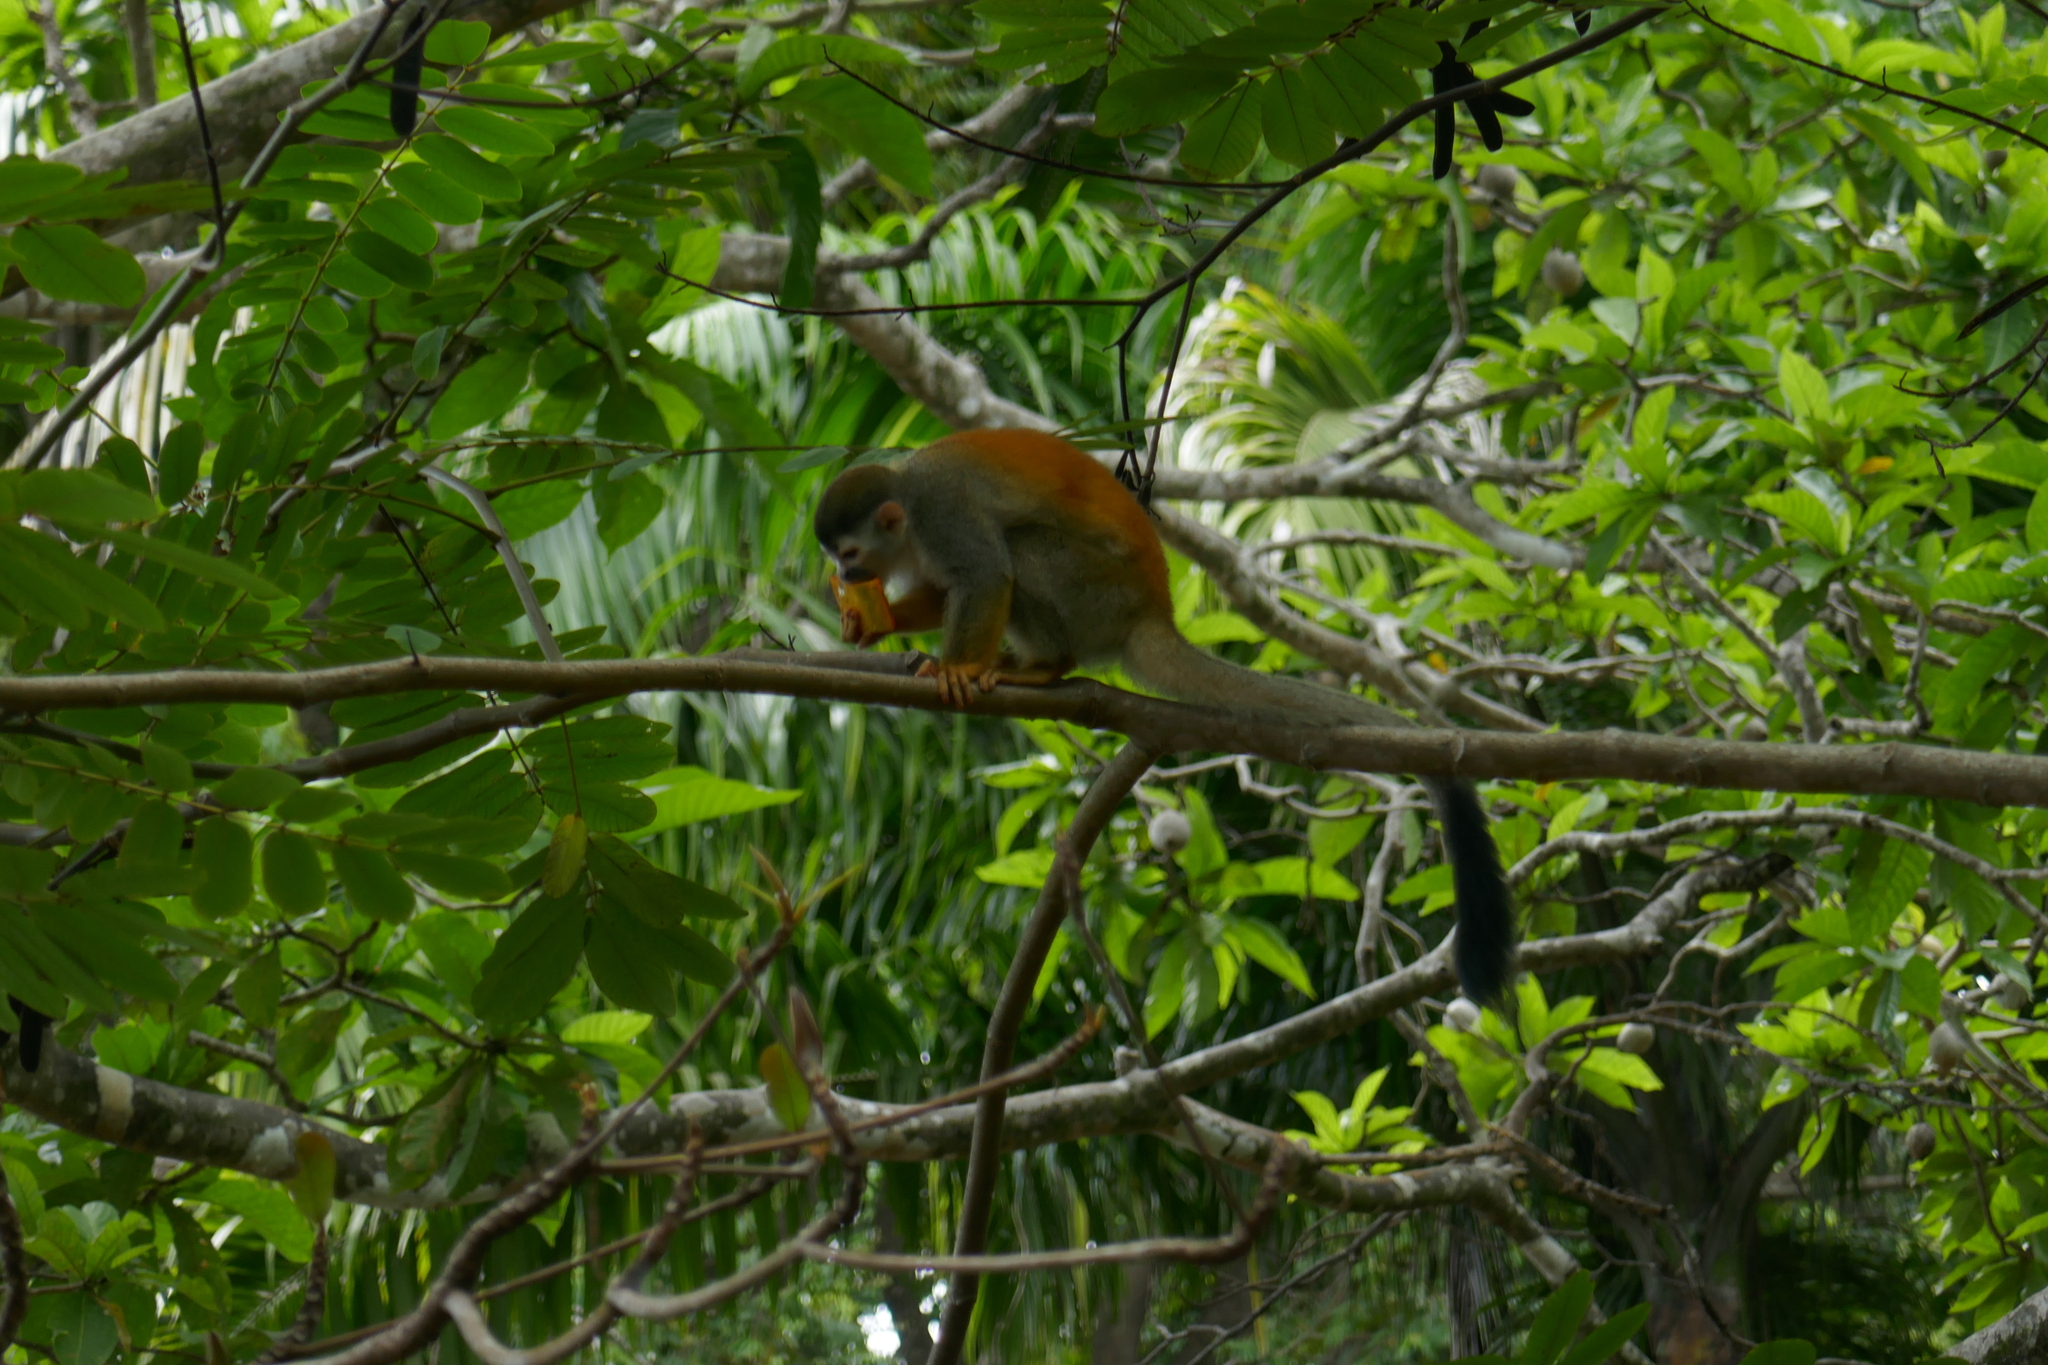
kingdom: Animalia
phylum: Chordata
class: Mammalia
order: Primates
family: Cebidae
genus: Saimiri
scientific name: Saimiri oerstedii
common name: Central american squirrel monkey
